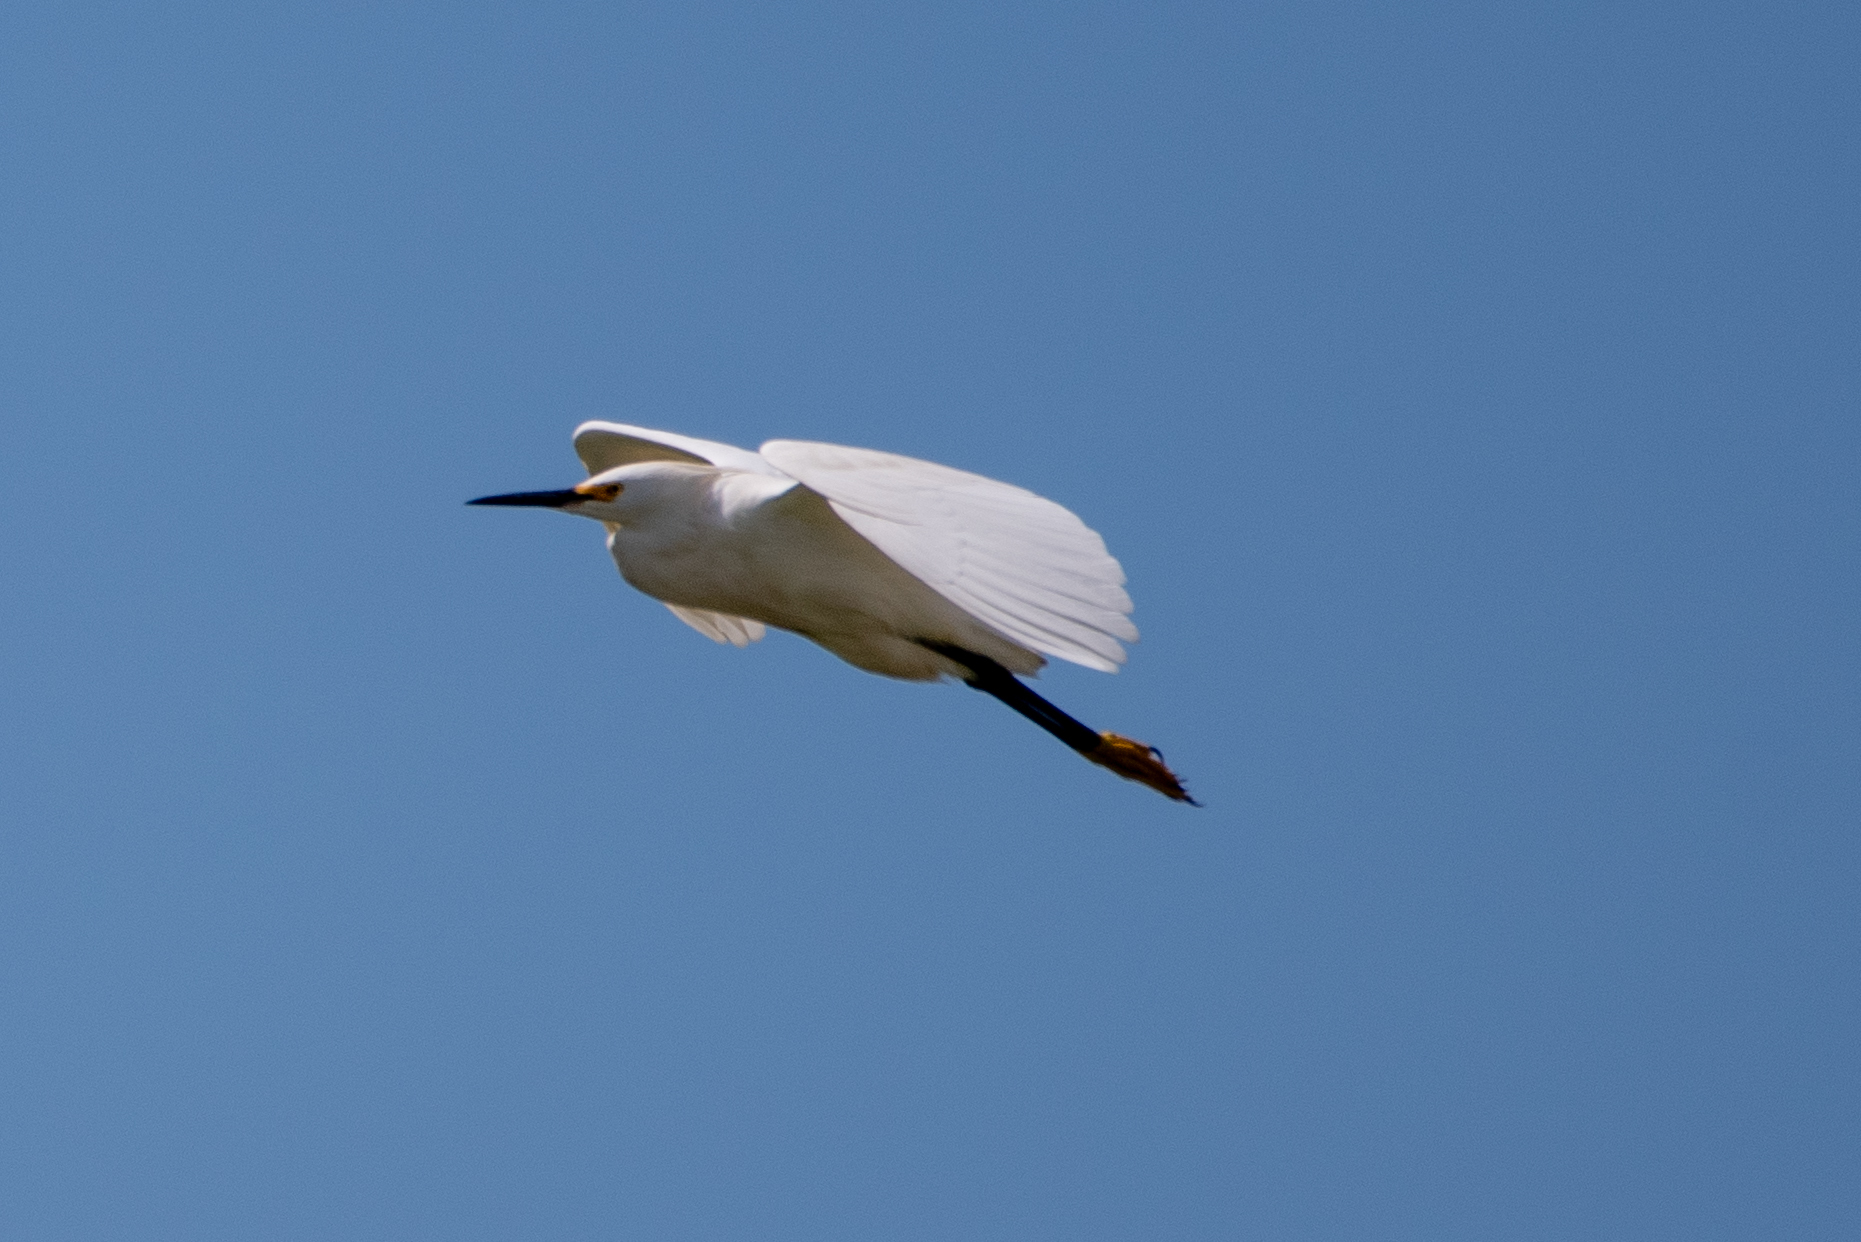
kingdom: Animalia
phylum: Chordata
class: Aves
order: Pelecaniformes
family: Ardeidae
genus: Egretta
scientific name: Egretta thula
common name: Snowy egret
